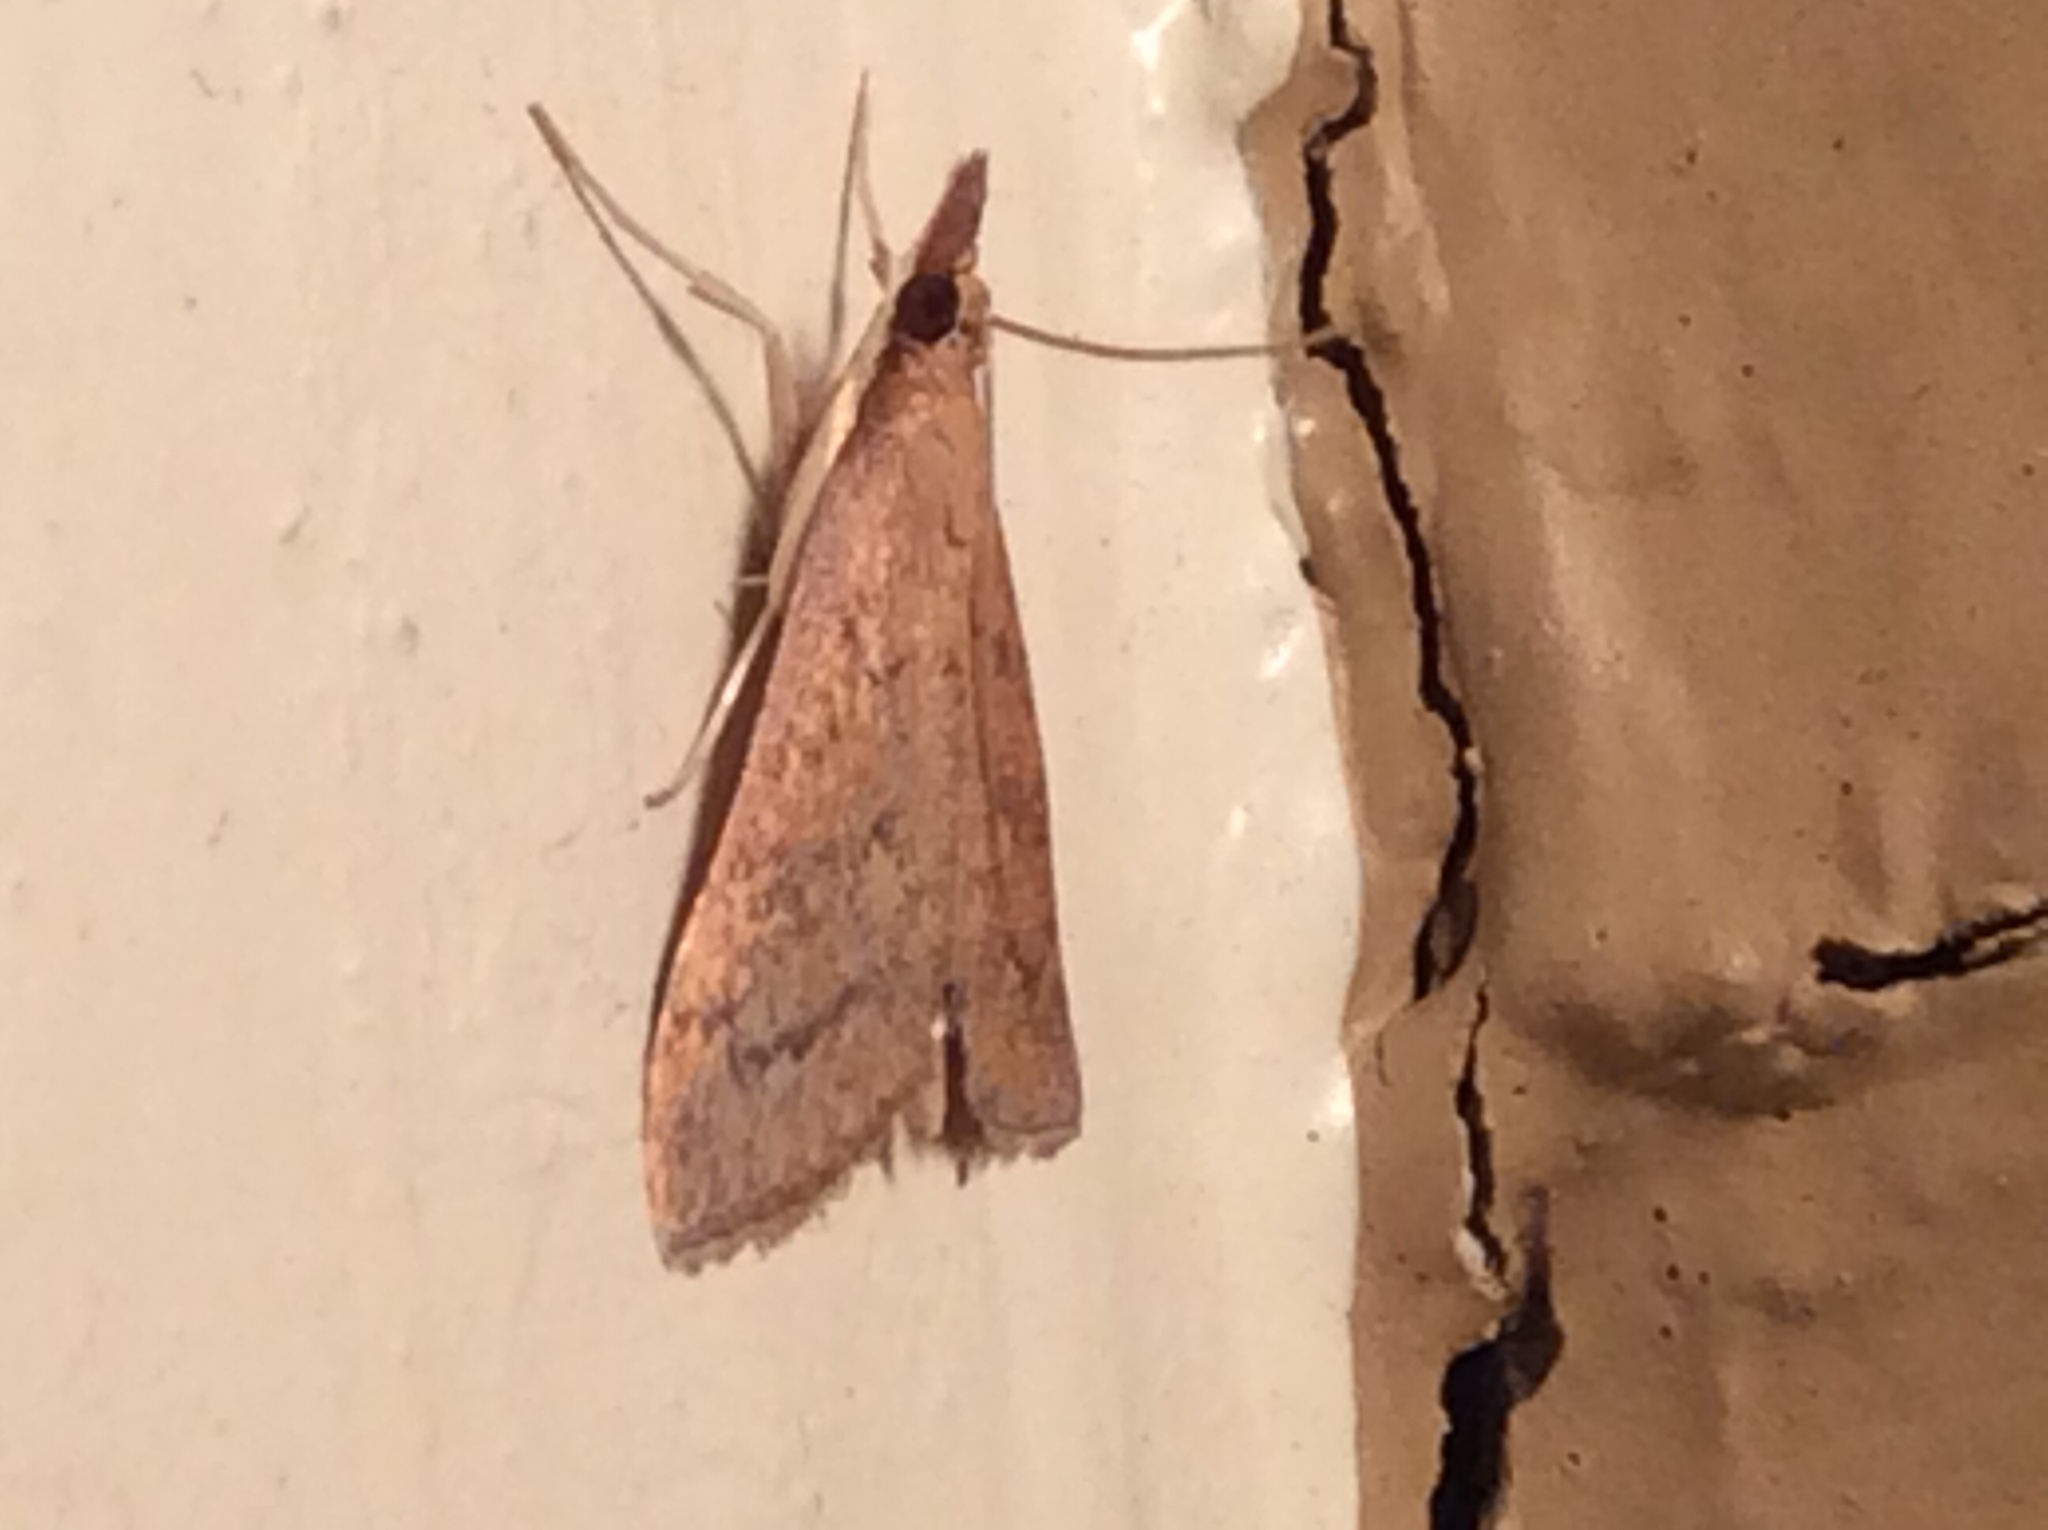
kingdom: Animalia
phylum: Arthropoda
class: Insecta
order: Lepidoptera
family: Crambidae
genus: Udea
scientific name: Udea rubigalis
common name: Celery leaftier moth
